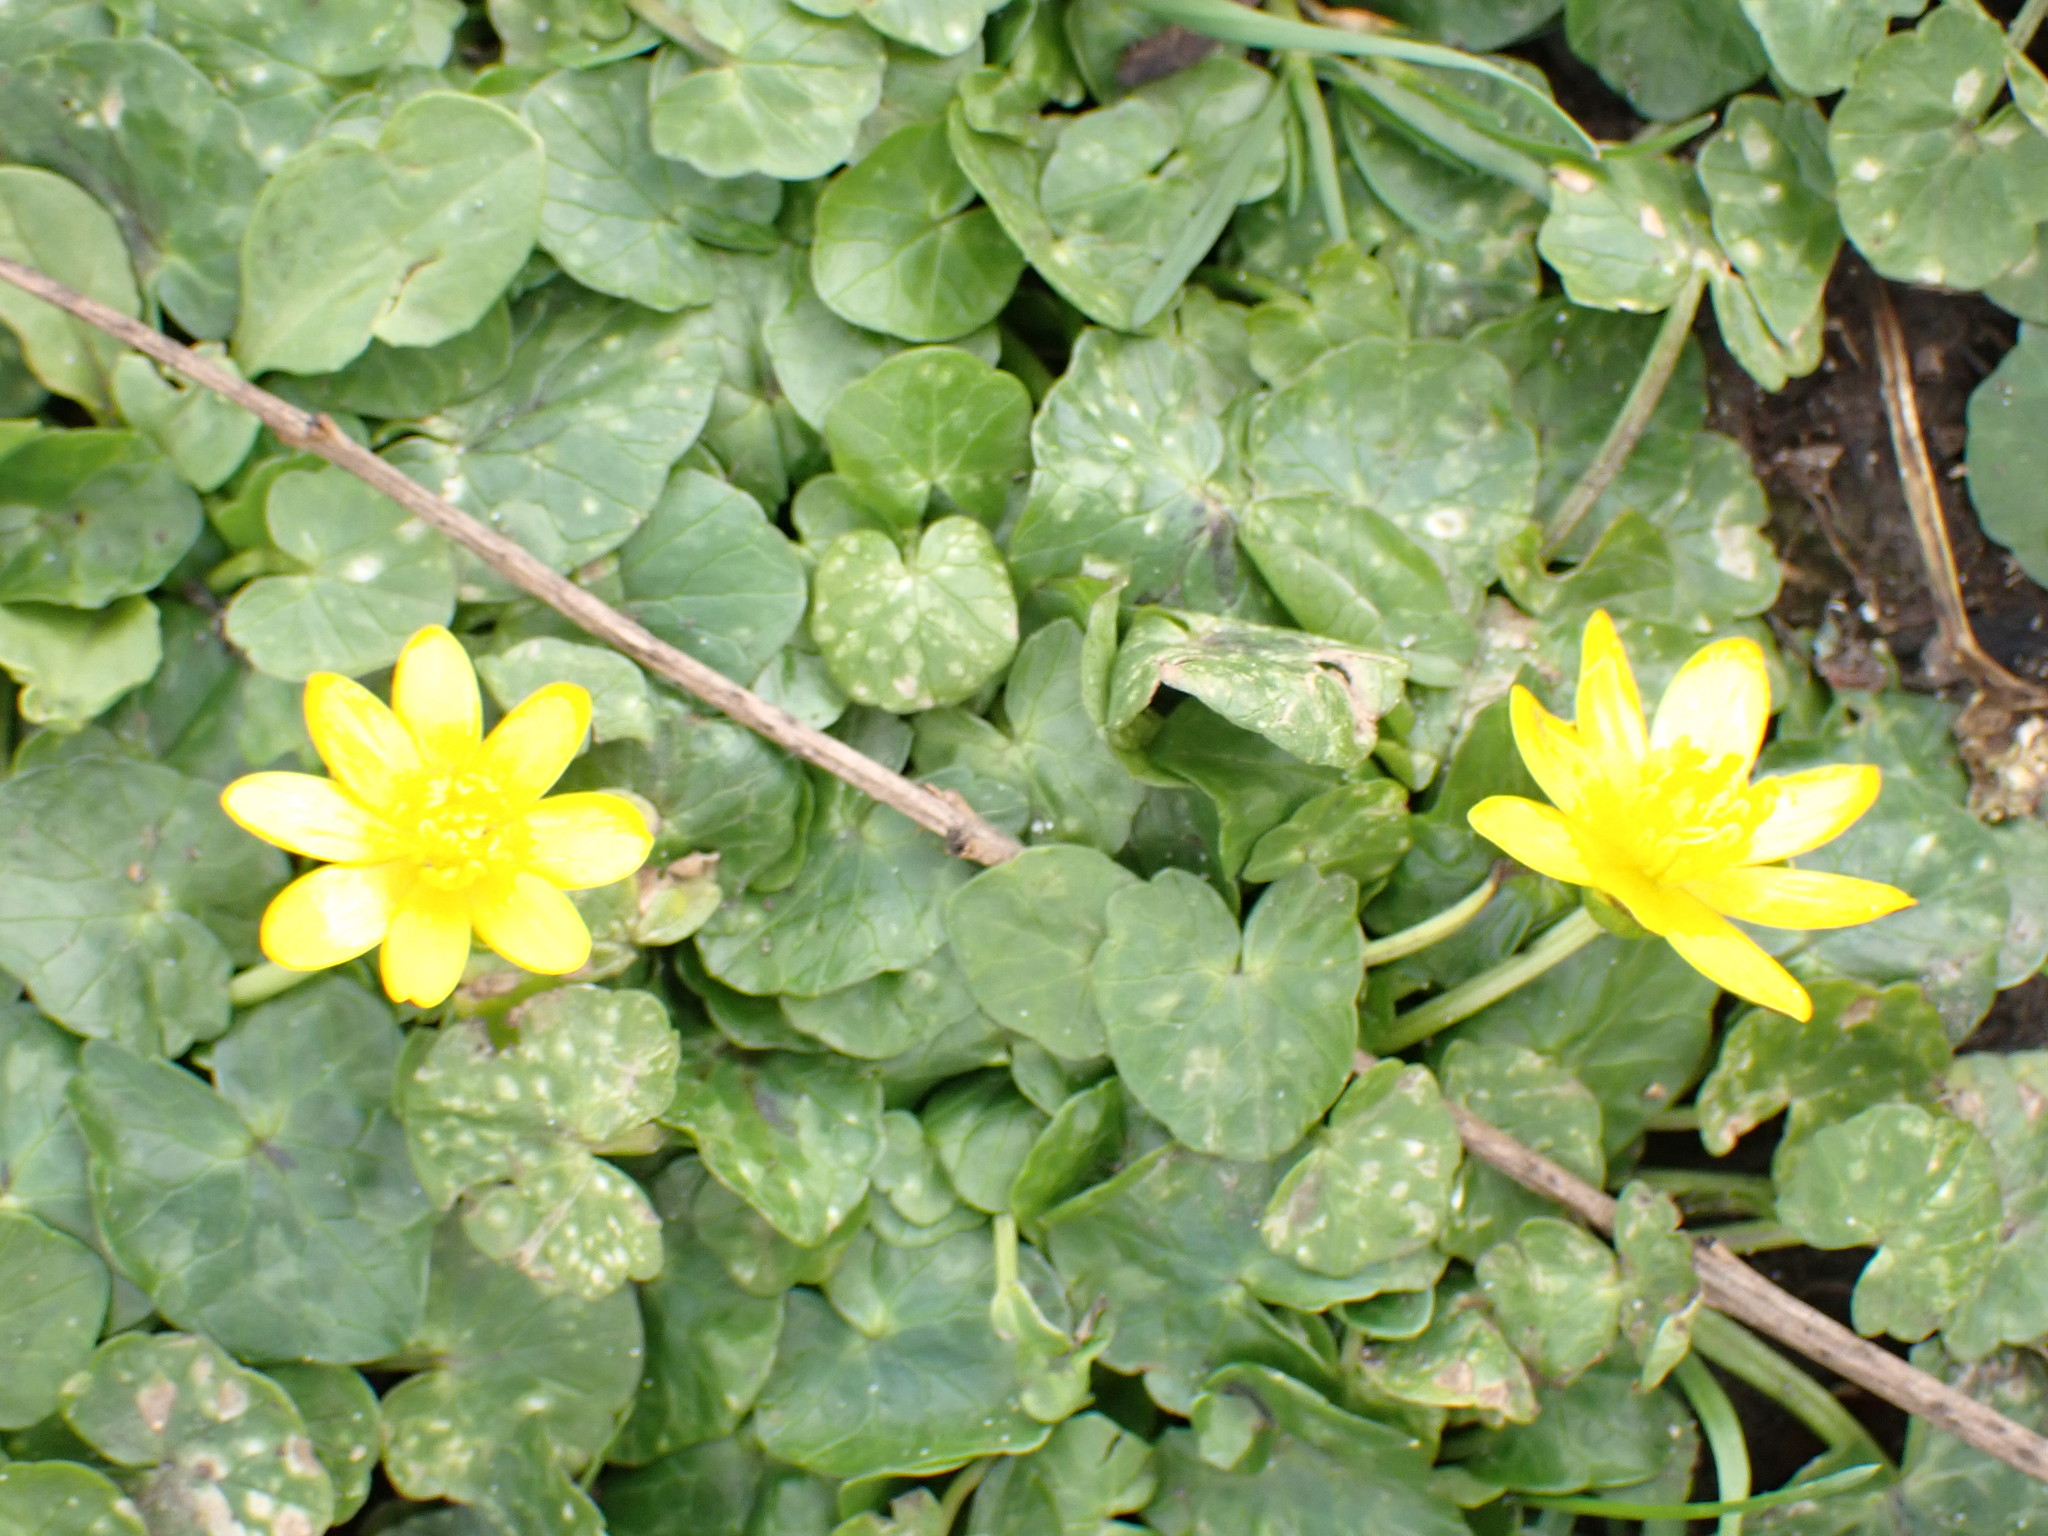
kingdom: Plantae
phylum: Tracheophyta
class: Magnoliopsida
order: Ranunculales
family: Ranunculaceae
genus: Ficaria
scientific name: Ficaria verna
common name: Lesser celandine
